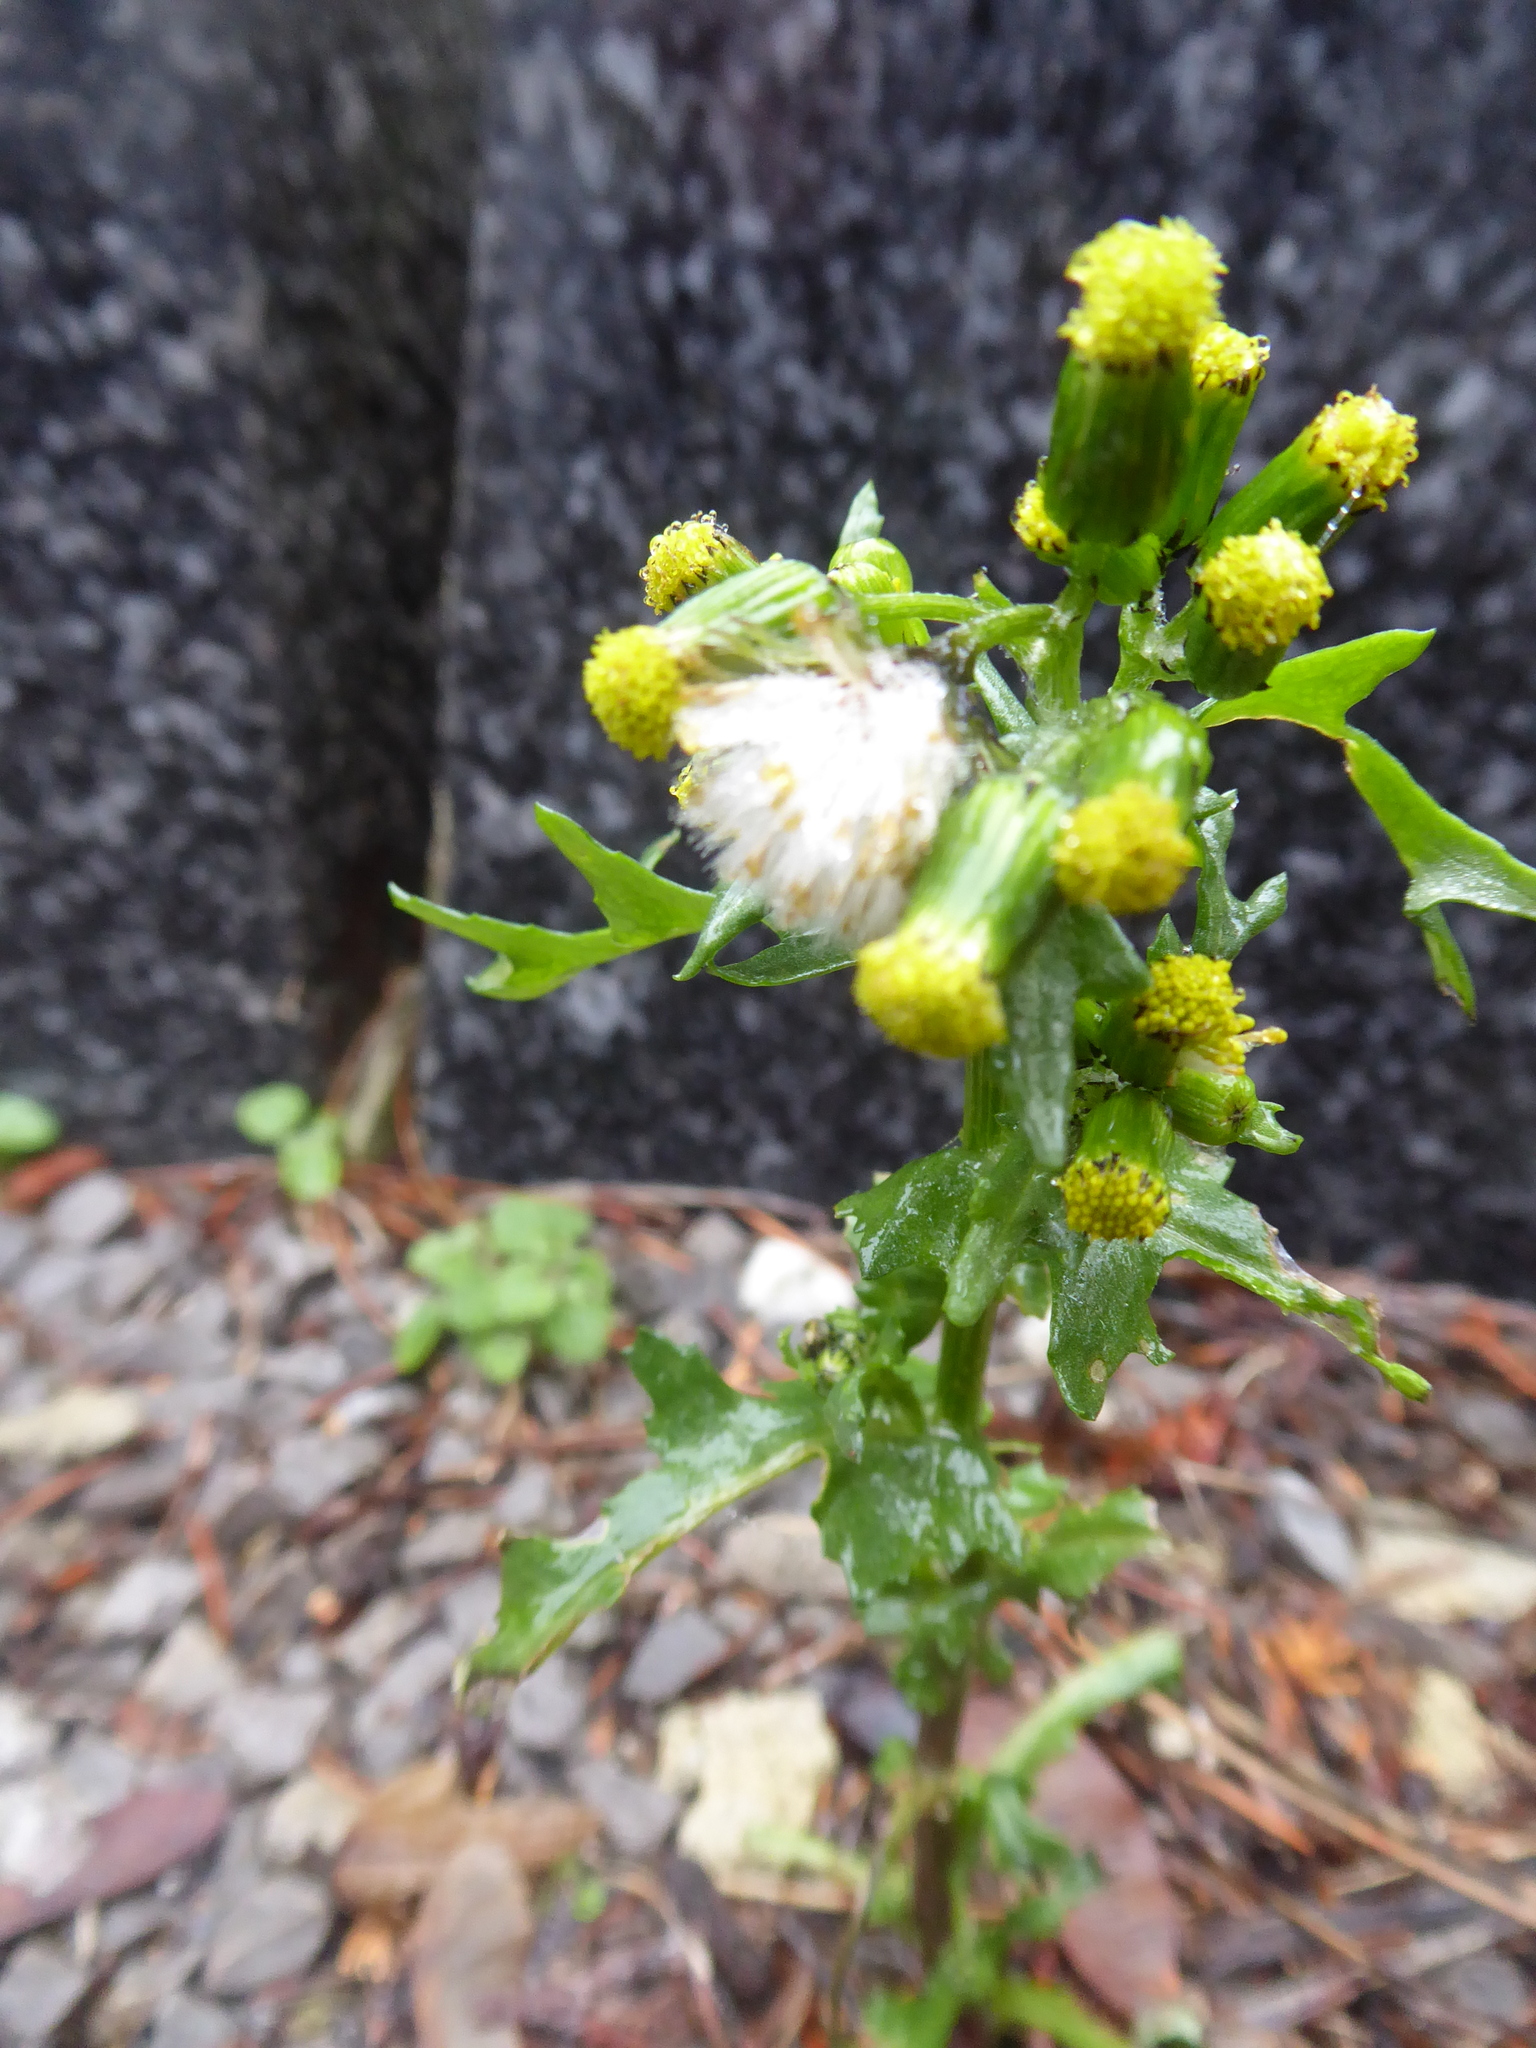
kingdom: Plantae
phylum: Tracheophyta
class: Magnoliopsida
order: Asterales
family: Asteraceae
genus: Senecio
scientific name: Senecio vulgaris
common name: Old-man-in-the-spring
